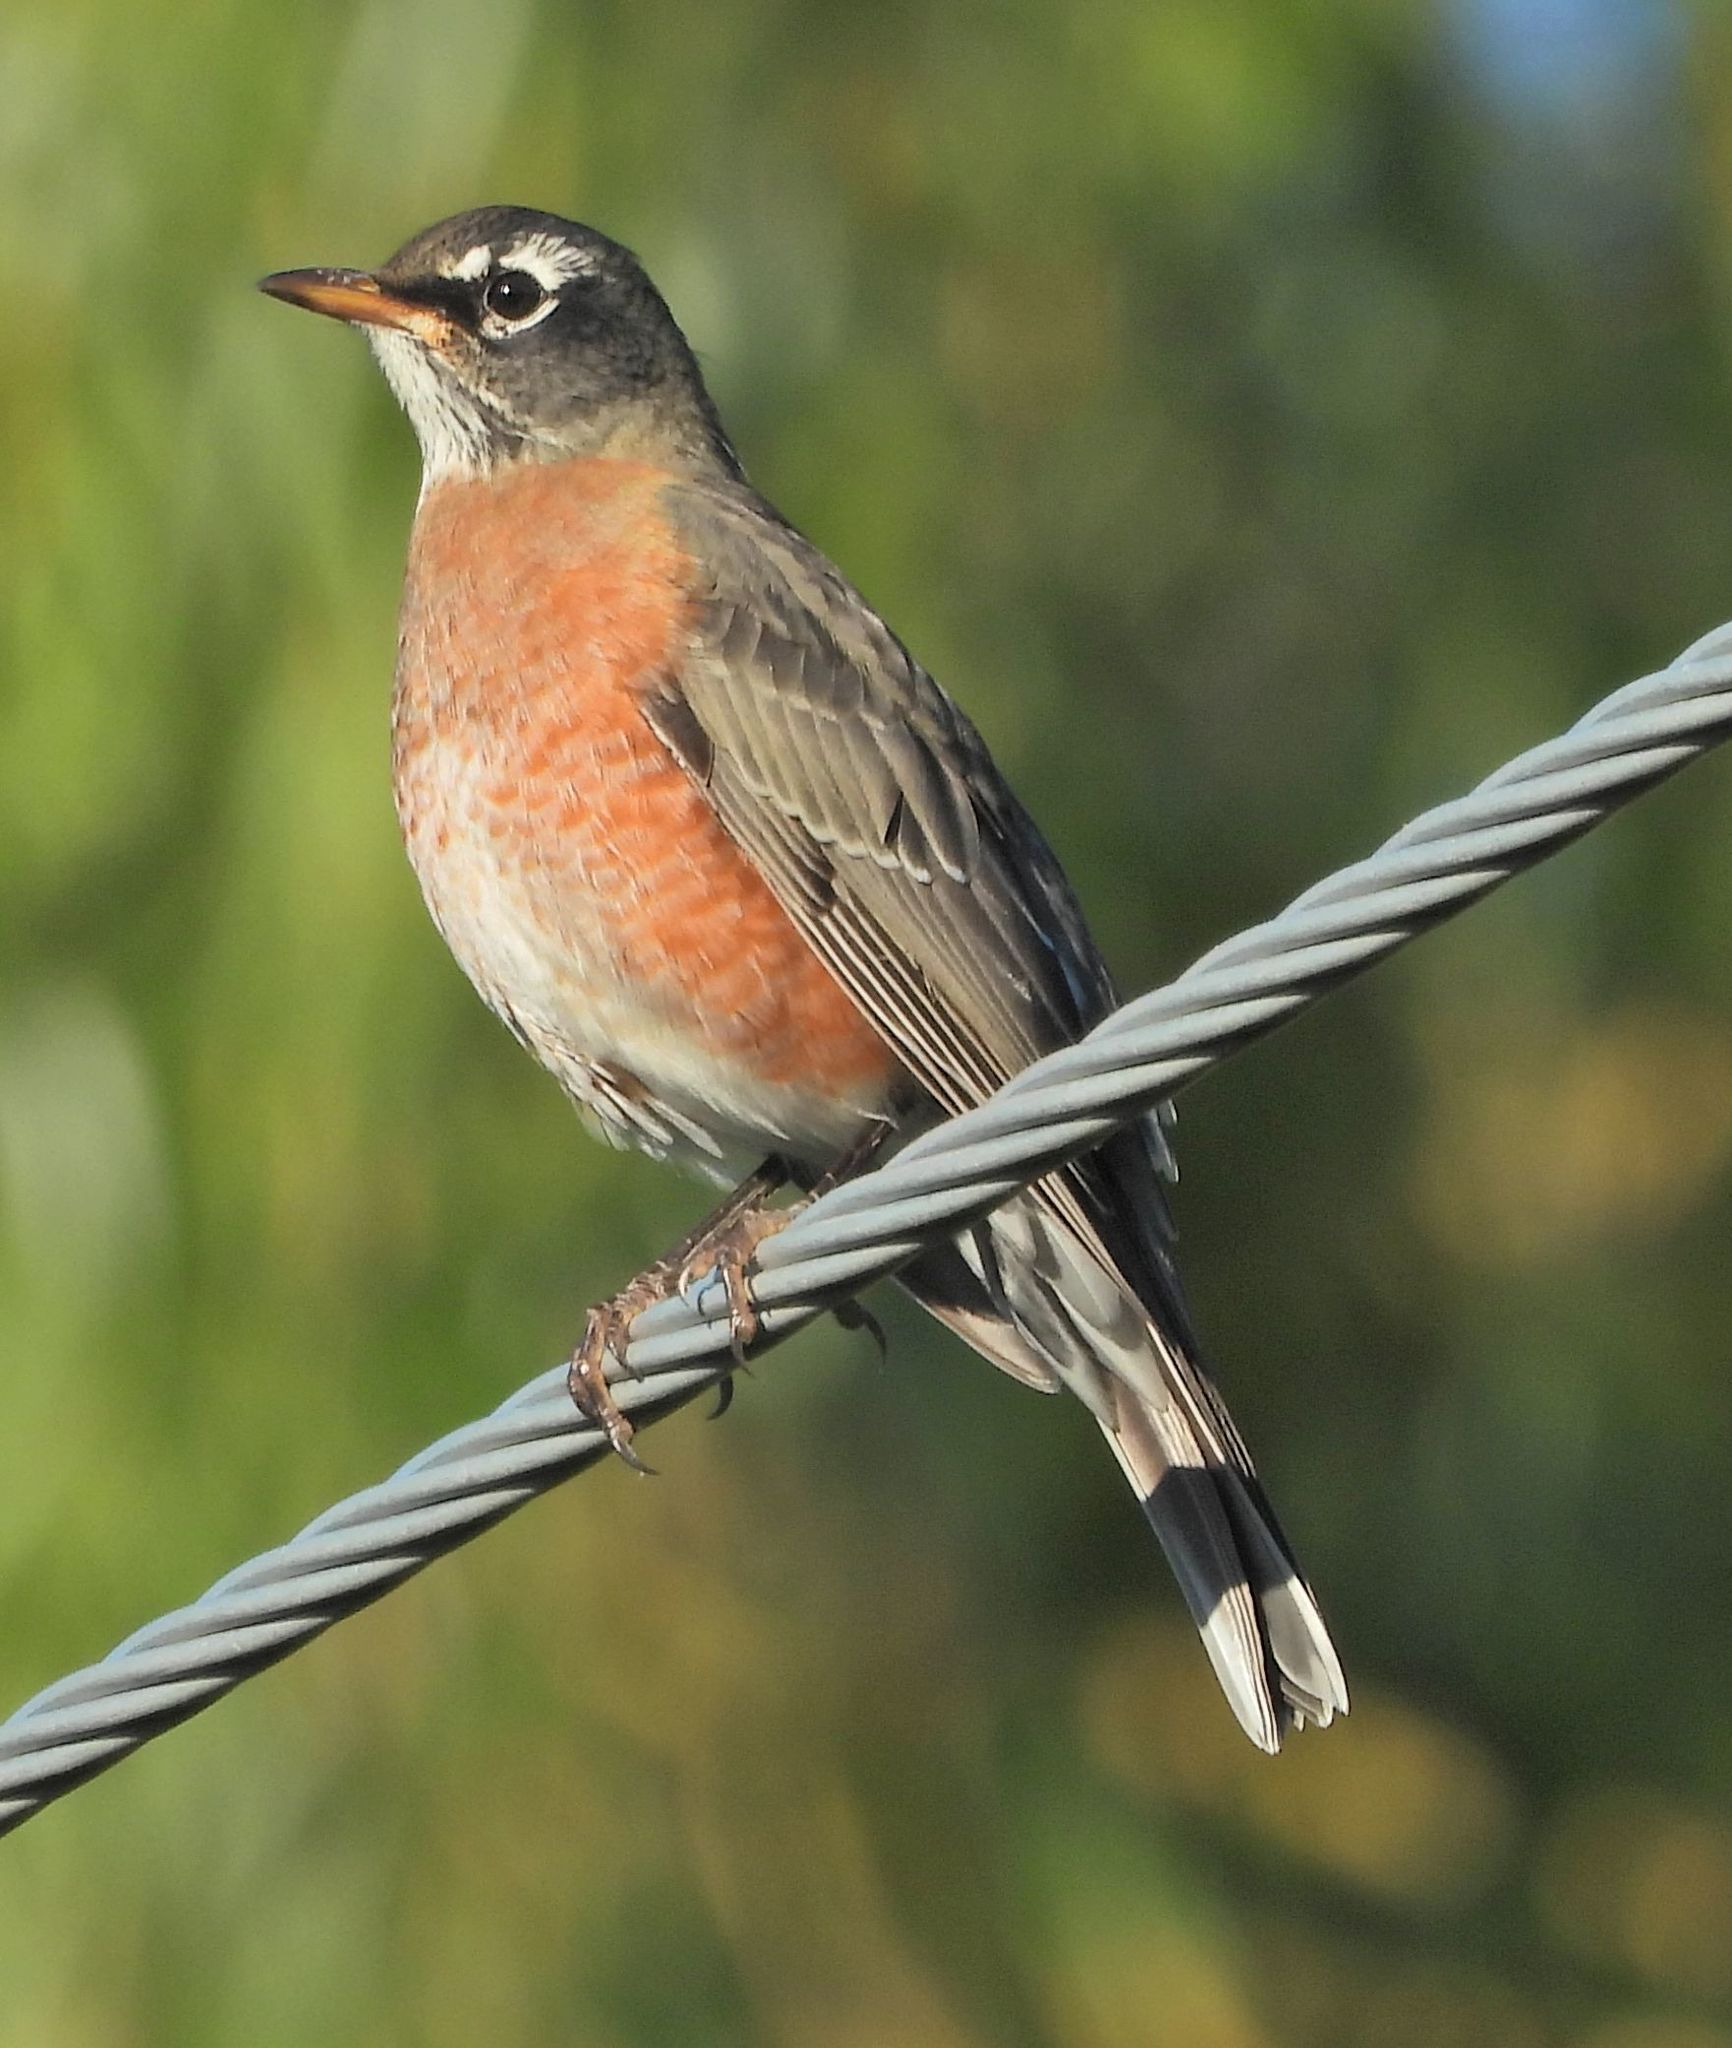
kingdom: Animalia
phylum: Chordata
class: Aves
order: Passeriformes
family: Turdidae
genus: Turdus
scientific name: Turdus migratorius
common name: American robin
